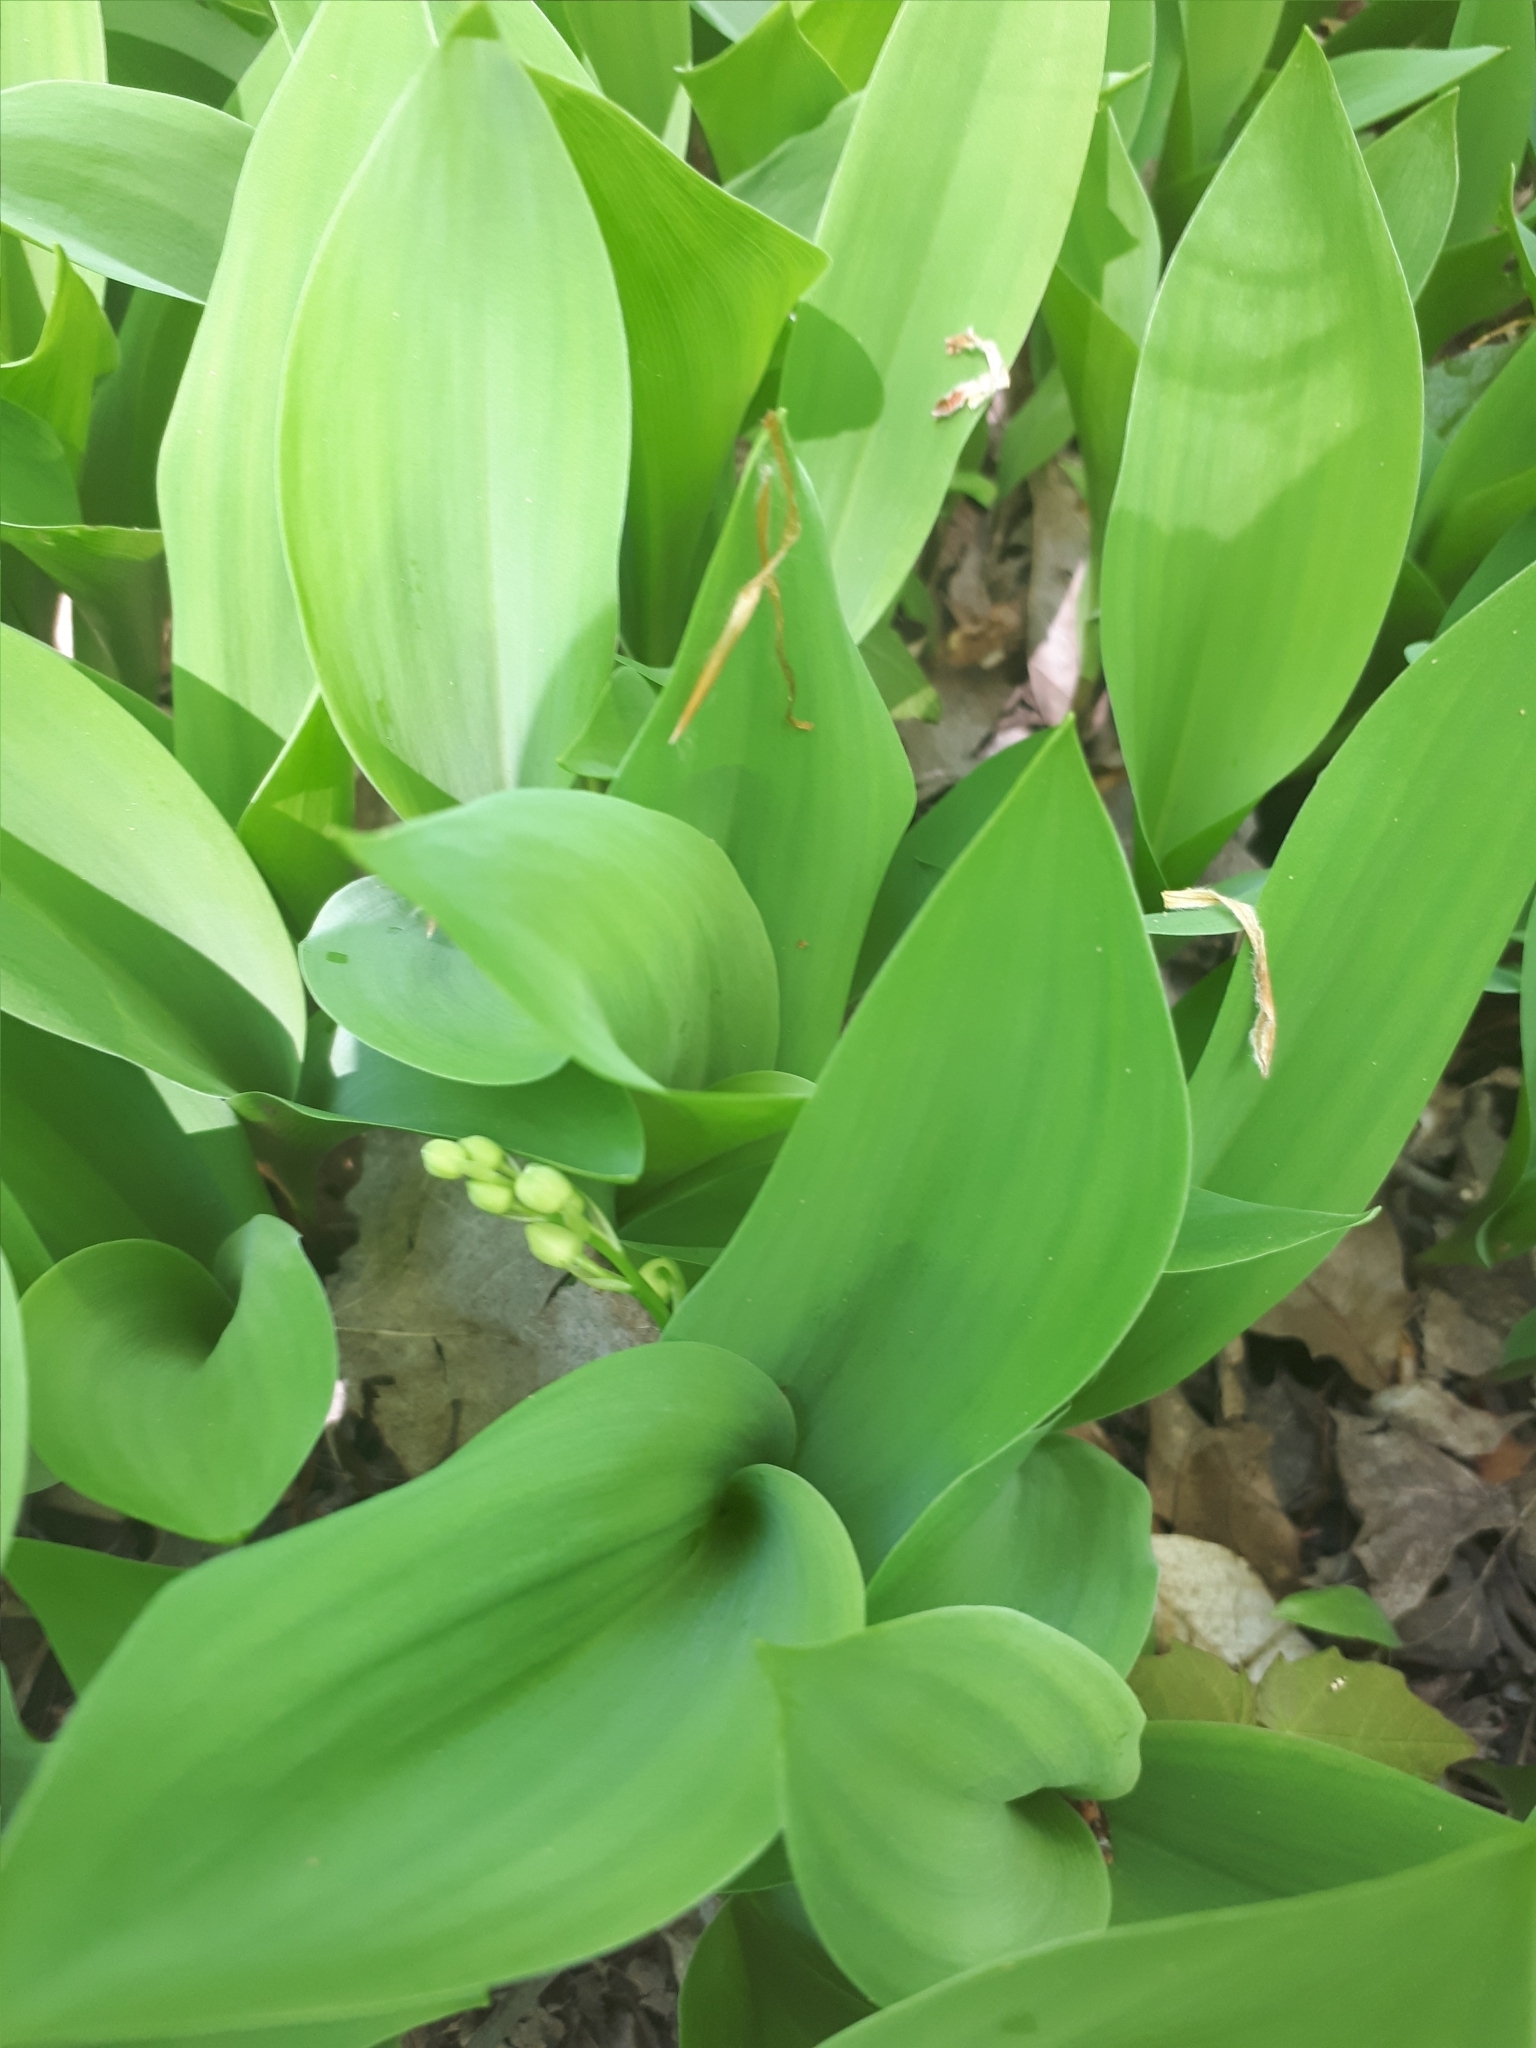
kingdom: Plantae
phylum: Tracheophyta
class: Liliopsida
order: Asparagales
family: Asparagaceae
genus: Convallaria
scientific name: Convallaria majalis
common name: Lily-of-the-valley
